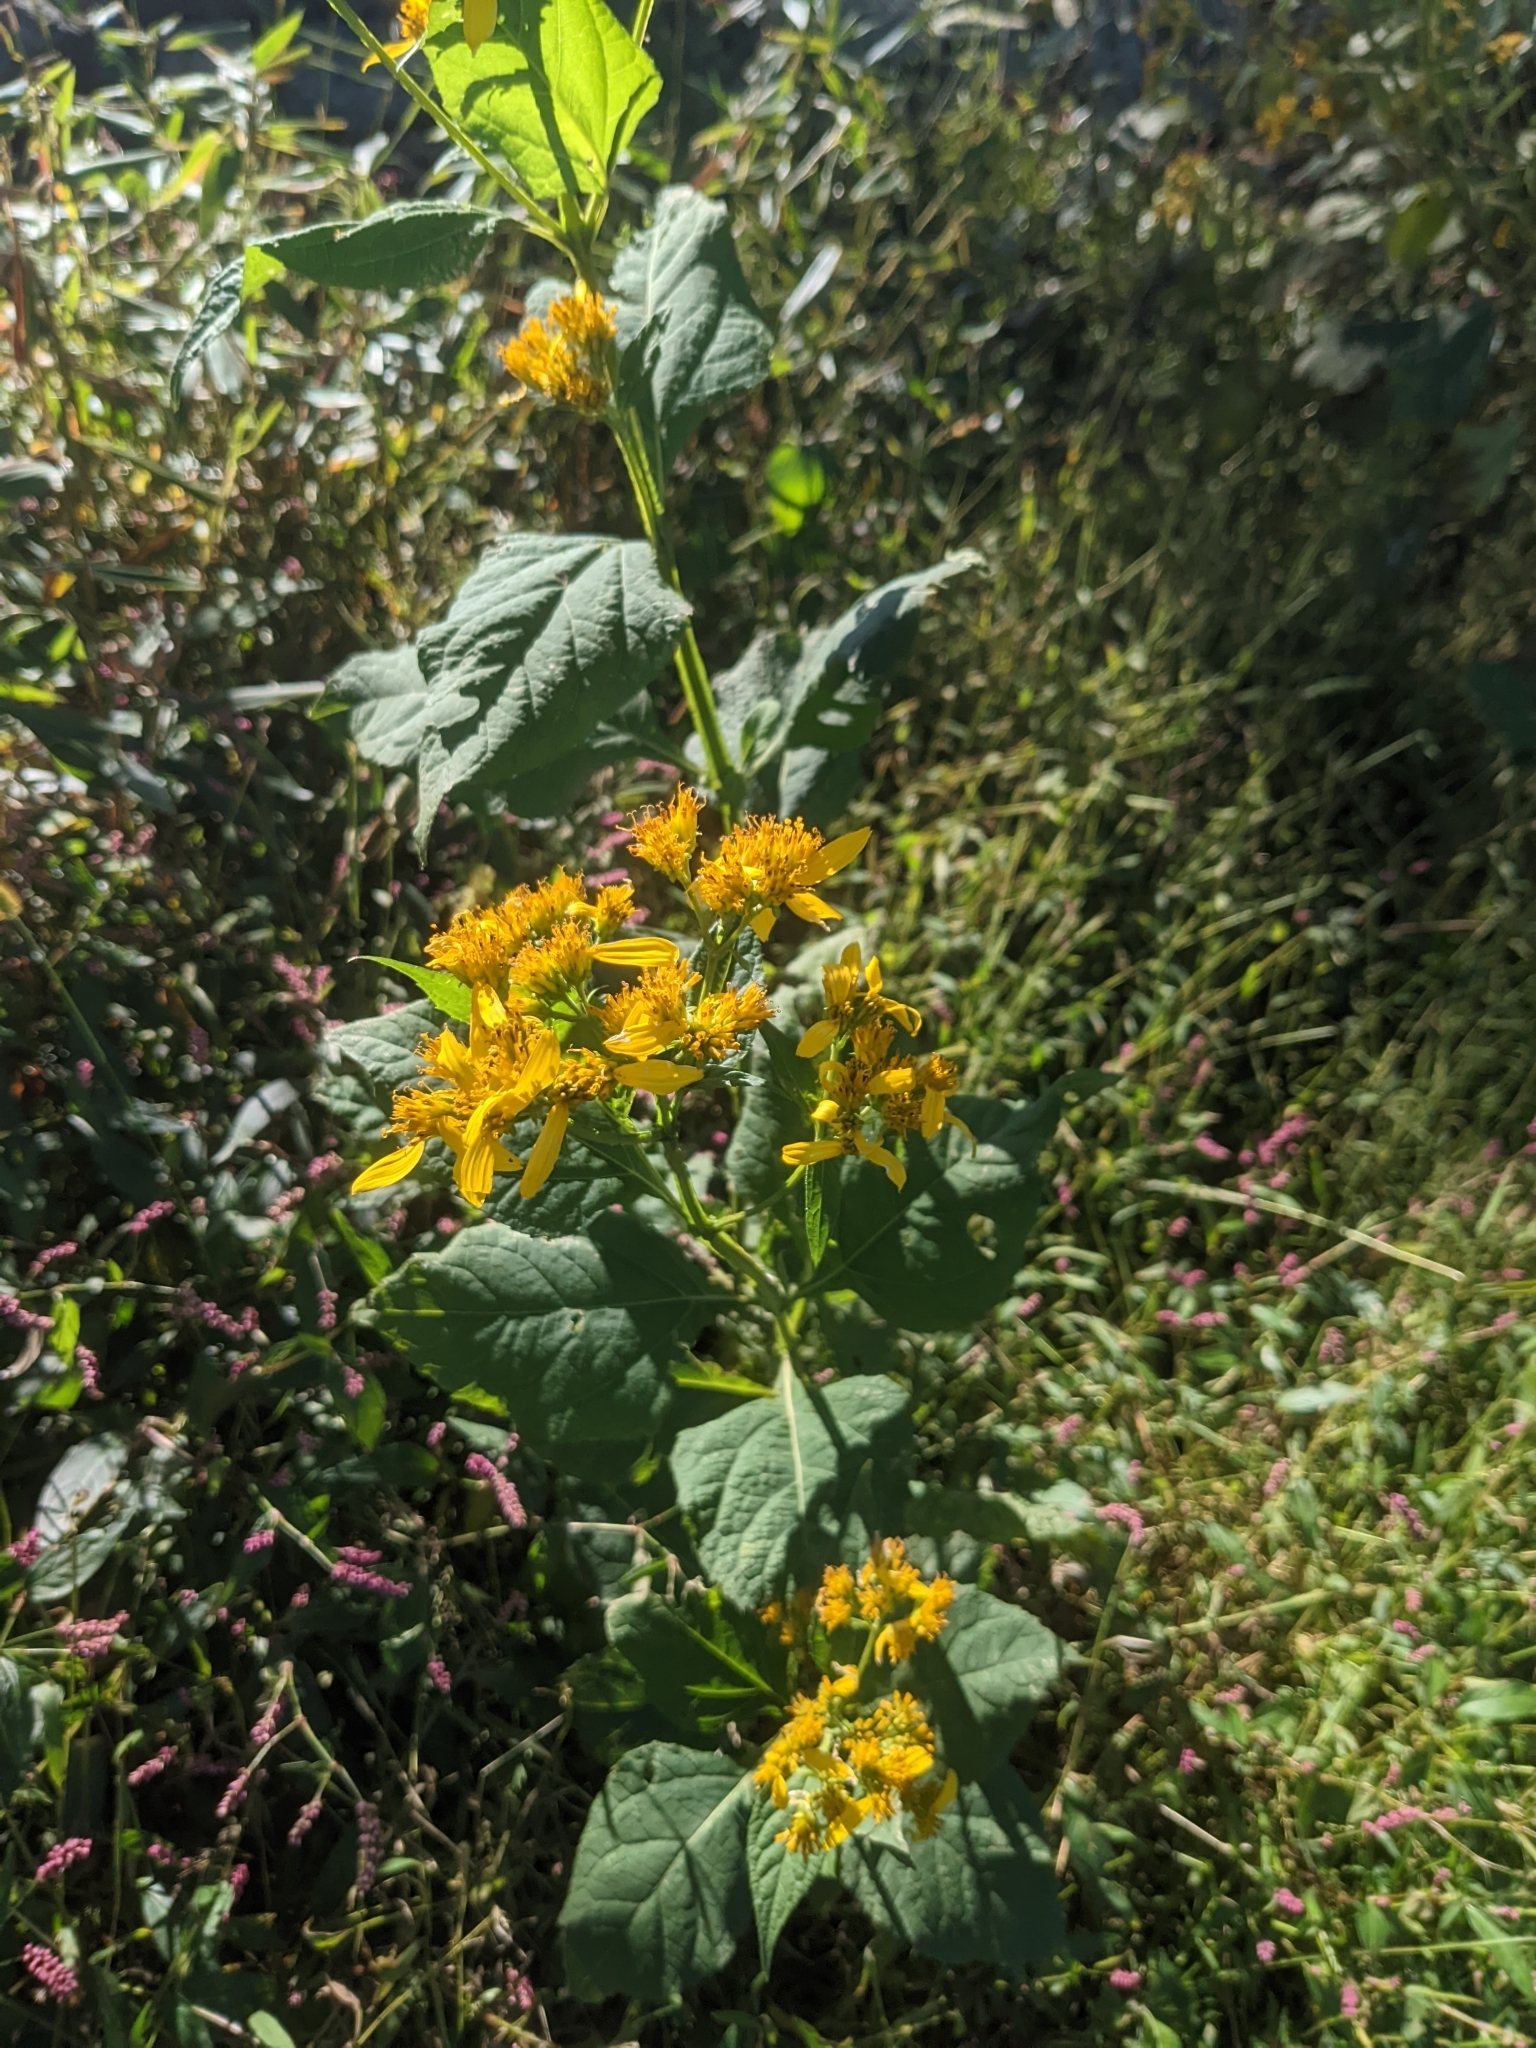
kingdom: Plantae
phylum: Tracheophyta
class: Magnoliopsida
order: Asterales
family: Asteraceae
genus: Verbesina
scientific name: Verbesina occidentalis
